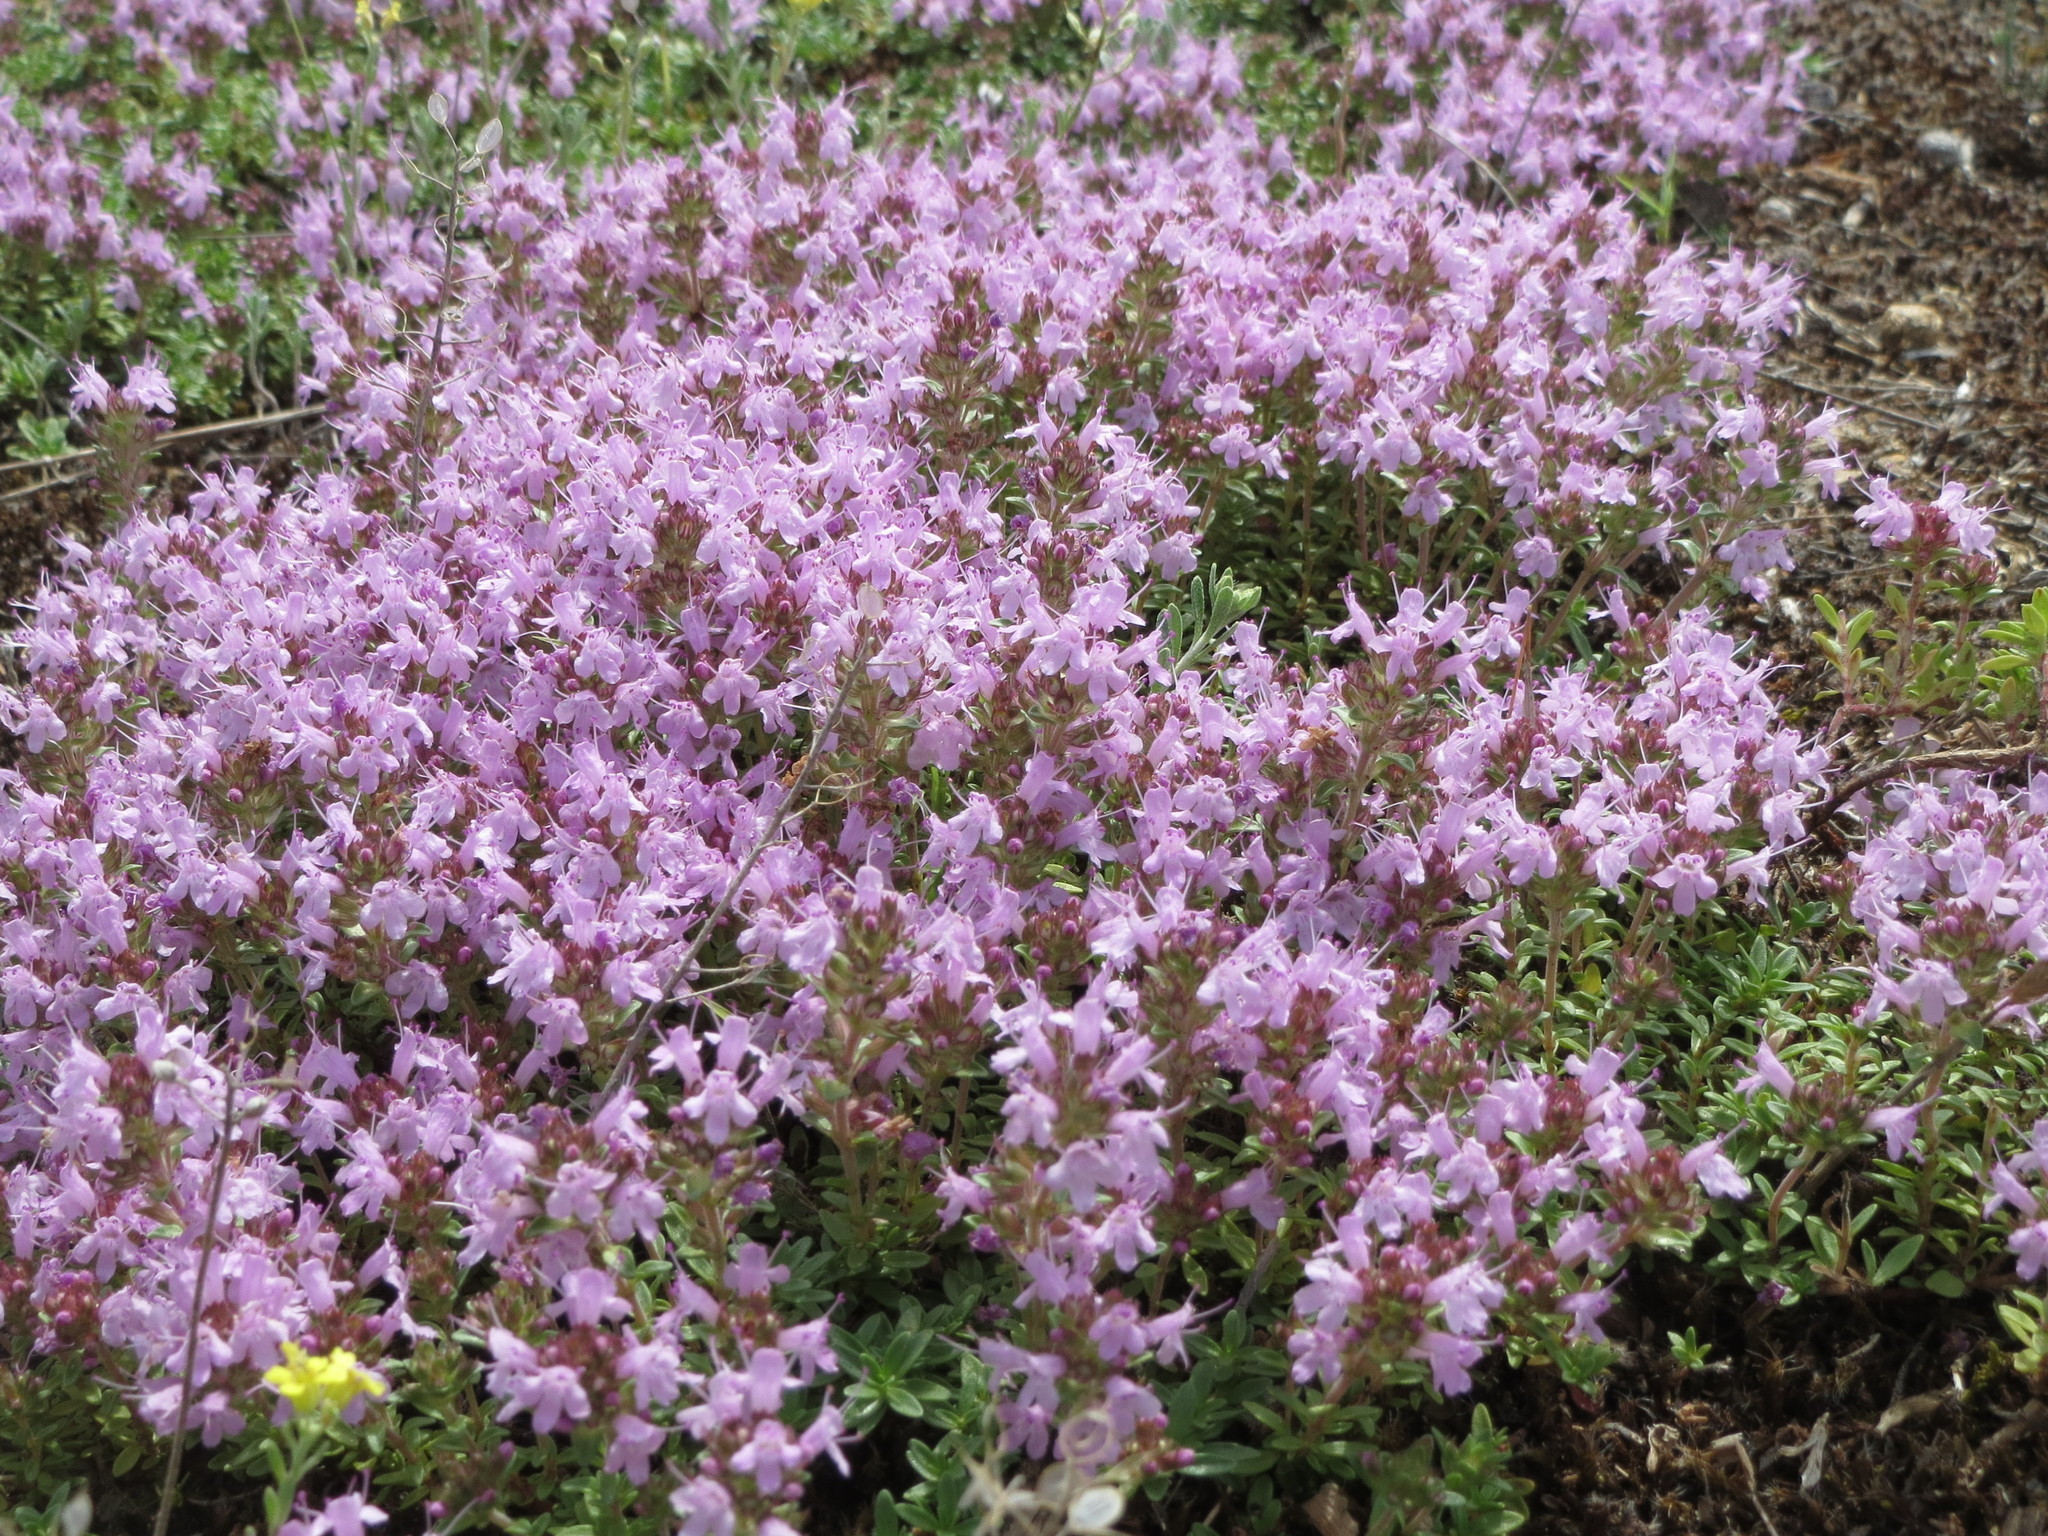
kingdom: Plantae
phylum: Tracheophyta
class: Magnoliopsida
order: Lamiales
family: Lamiaceae
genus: Thymus
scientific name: Thymus serpyllum
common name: Breckland thyme
